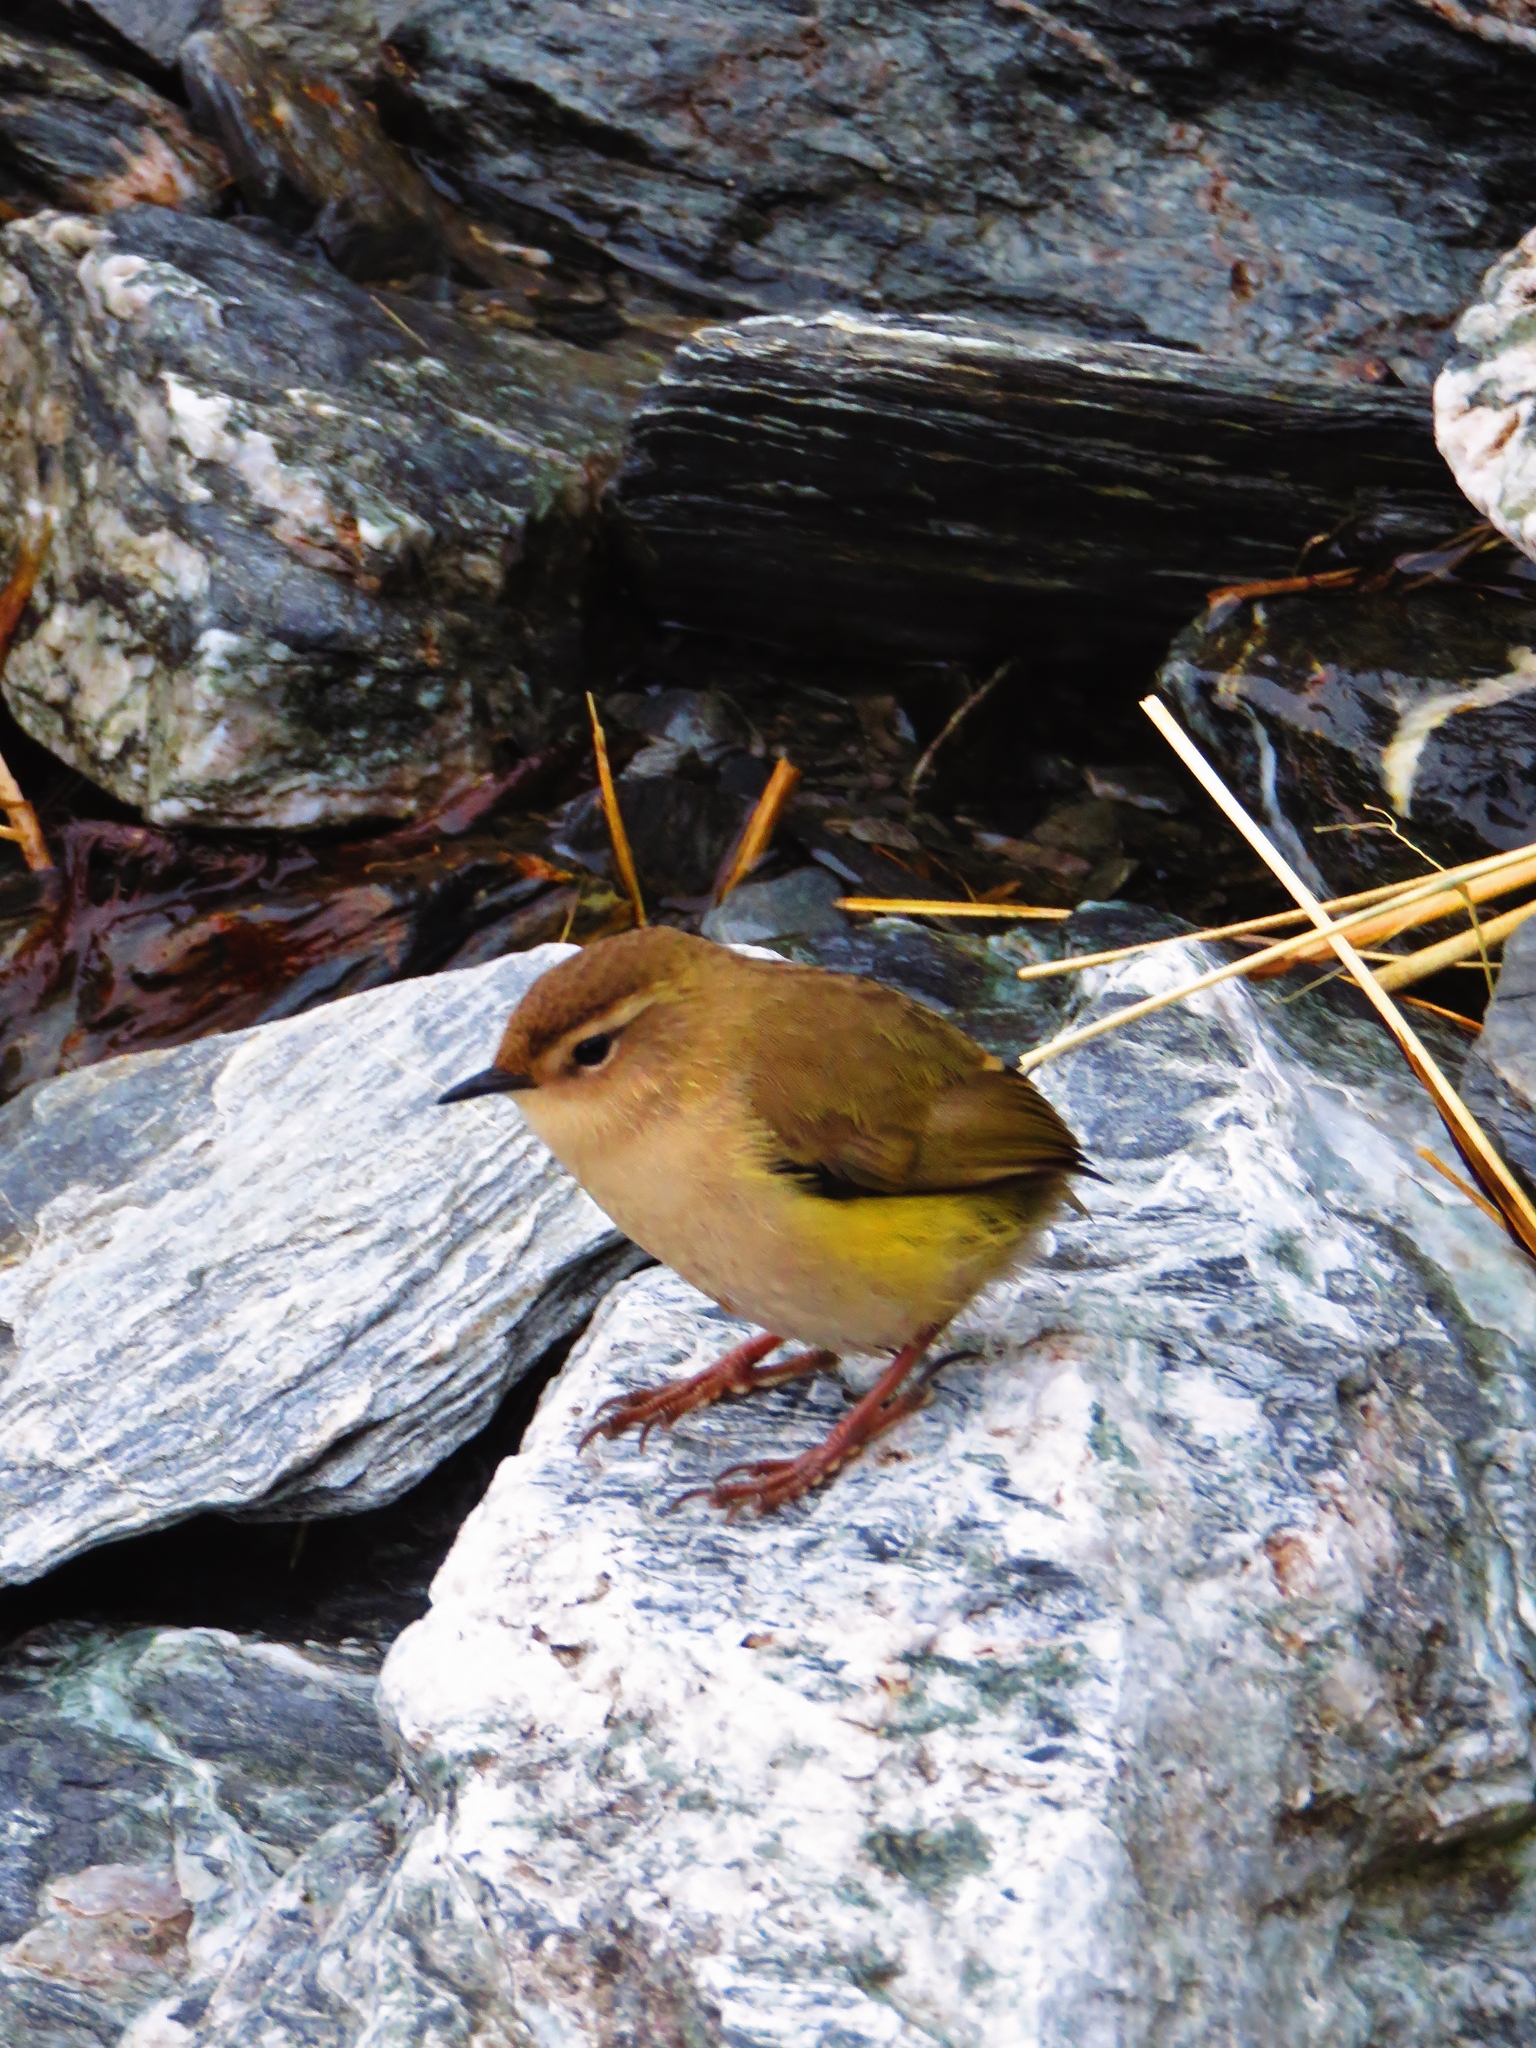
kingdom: Animalia
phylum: Chordata
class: Aves
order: Passeriformes
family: Acanthisittidae
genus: Xenicus
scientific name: Xenicus gilviventris
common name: New zealand rockwren
